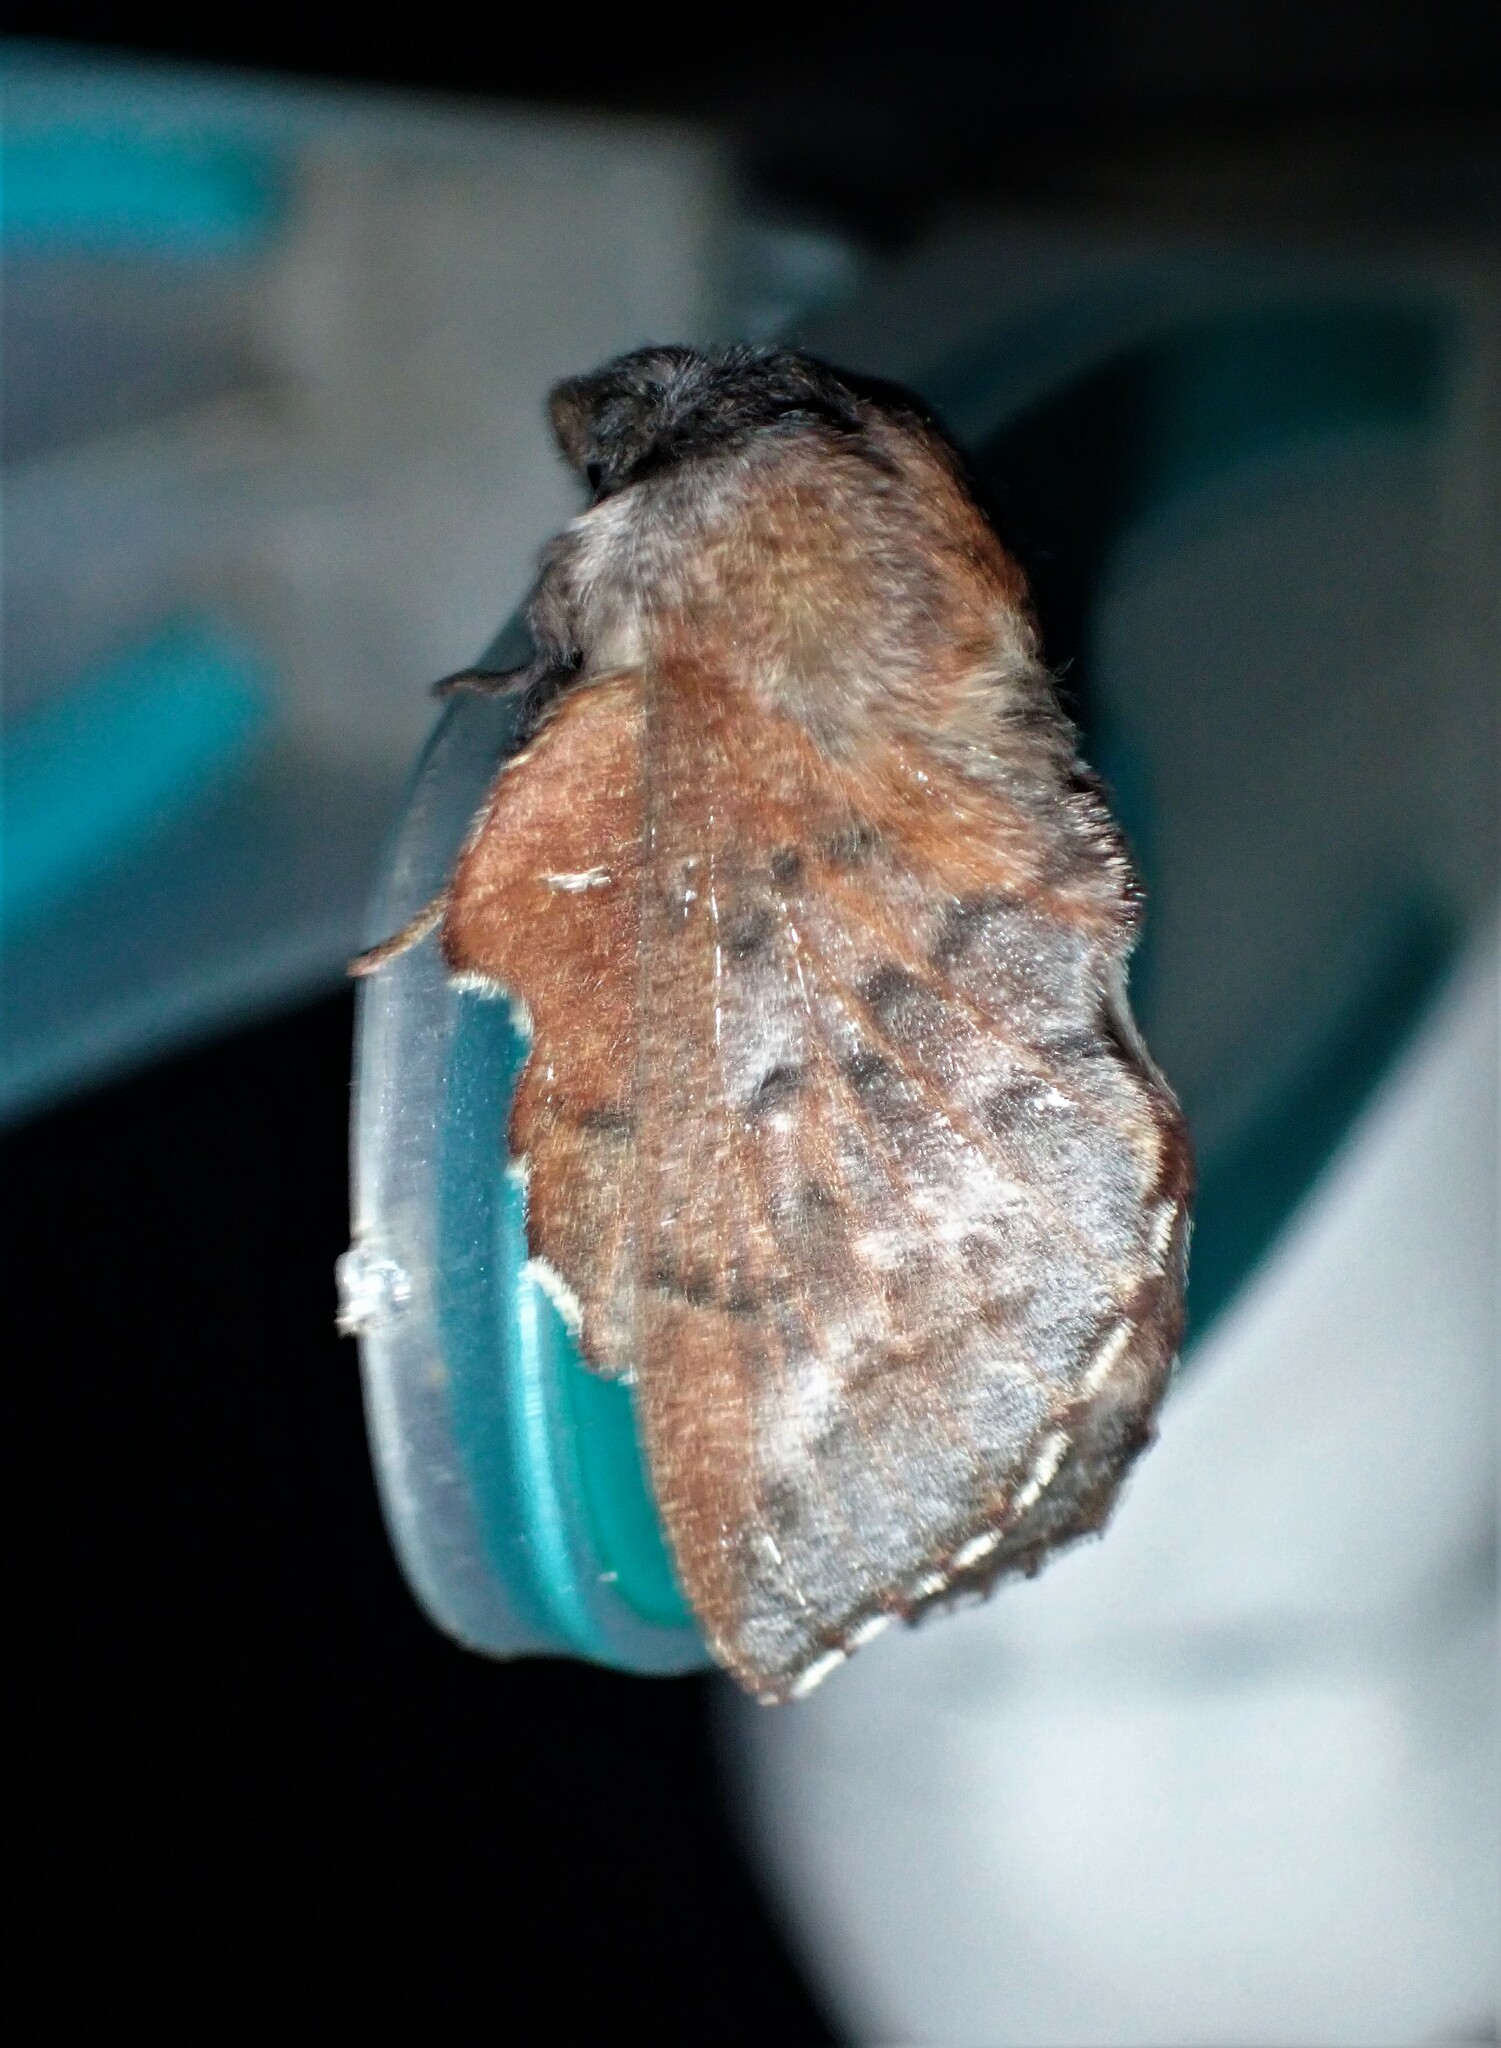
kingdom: Animalia
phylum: Arthropoda
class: Insecta
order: Lepidoptera
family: Lasiocampidae
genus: Phyllodesma
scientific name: Phyllodesma americana
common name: American lappet moth
